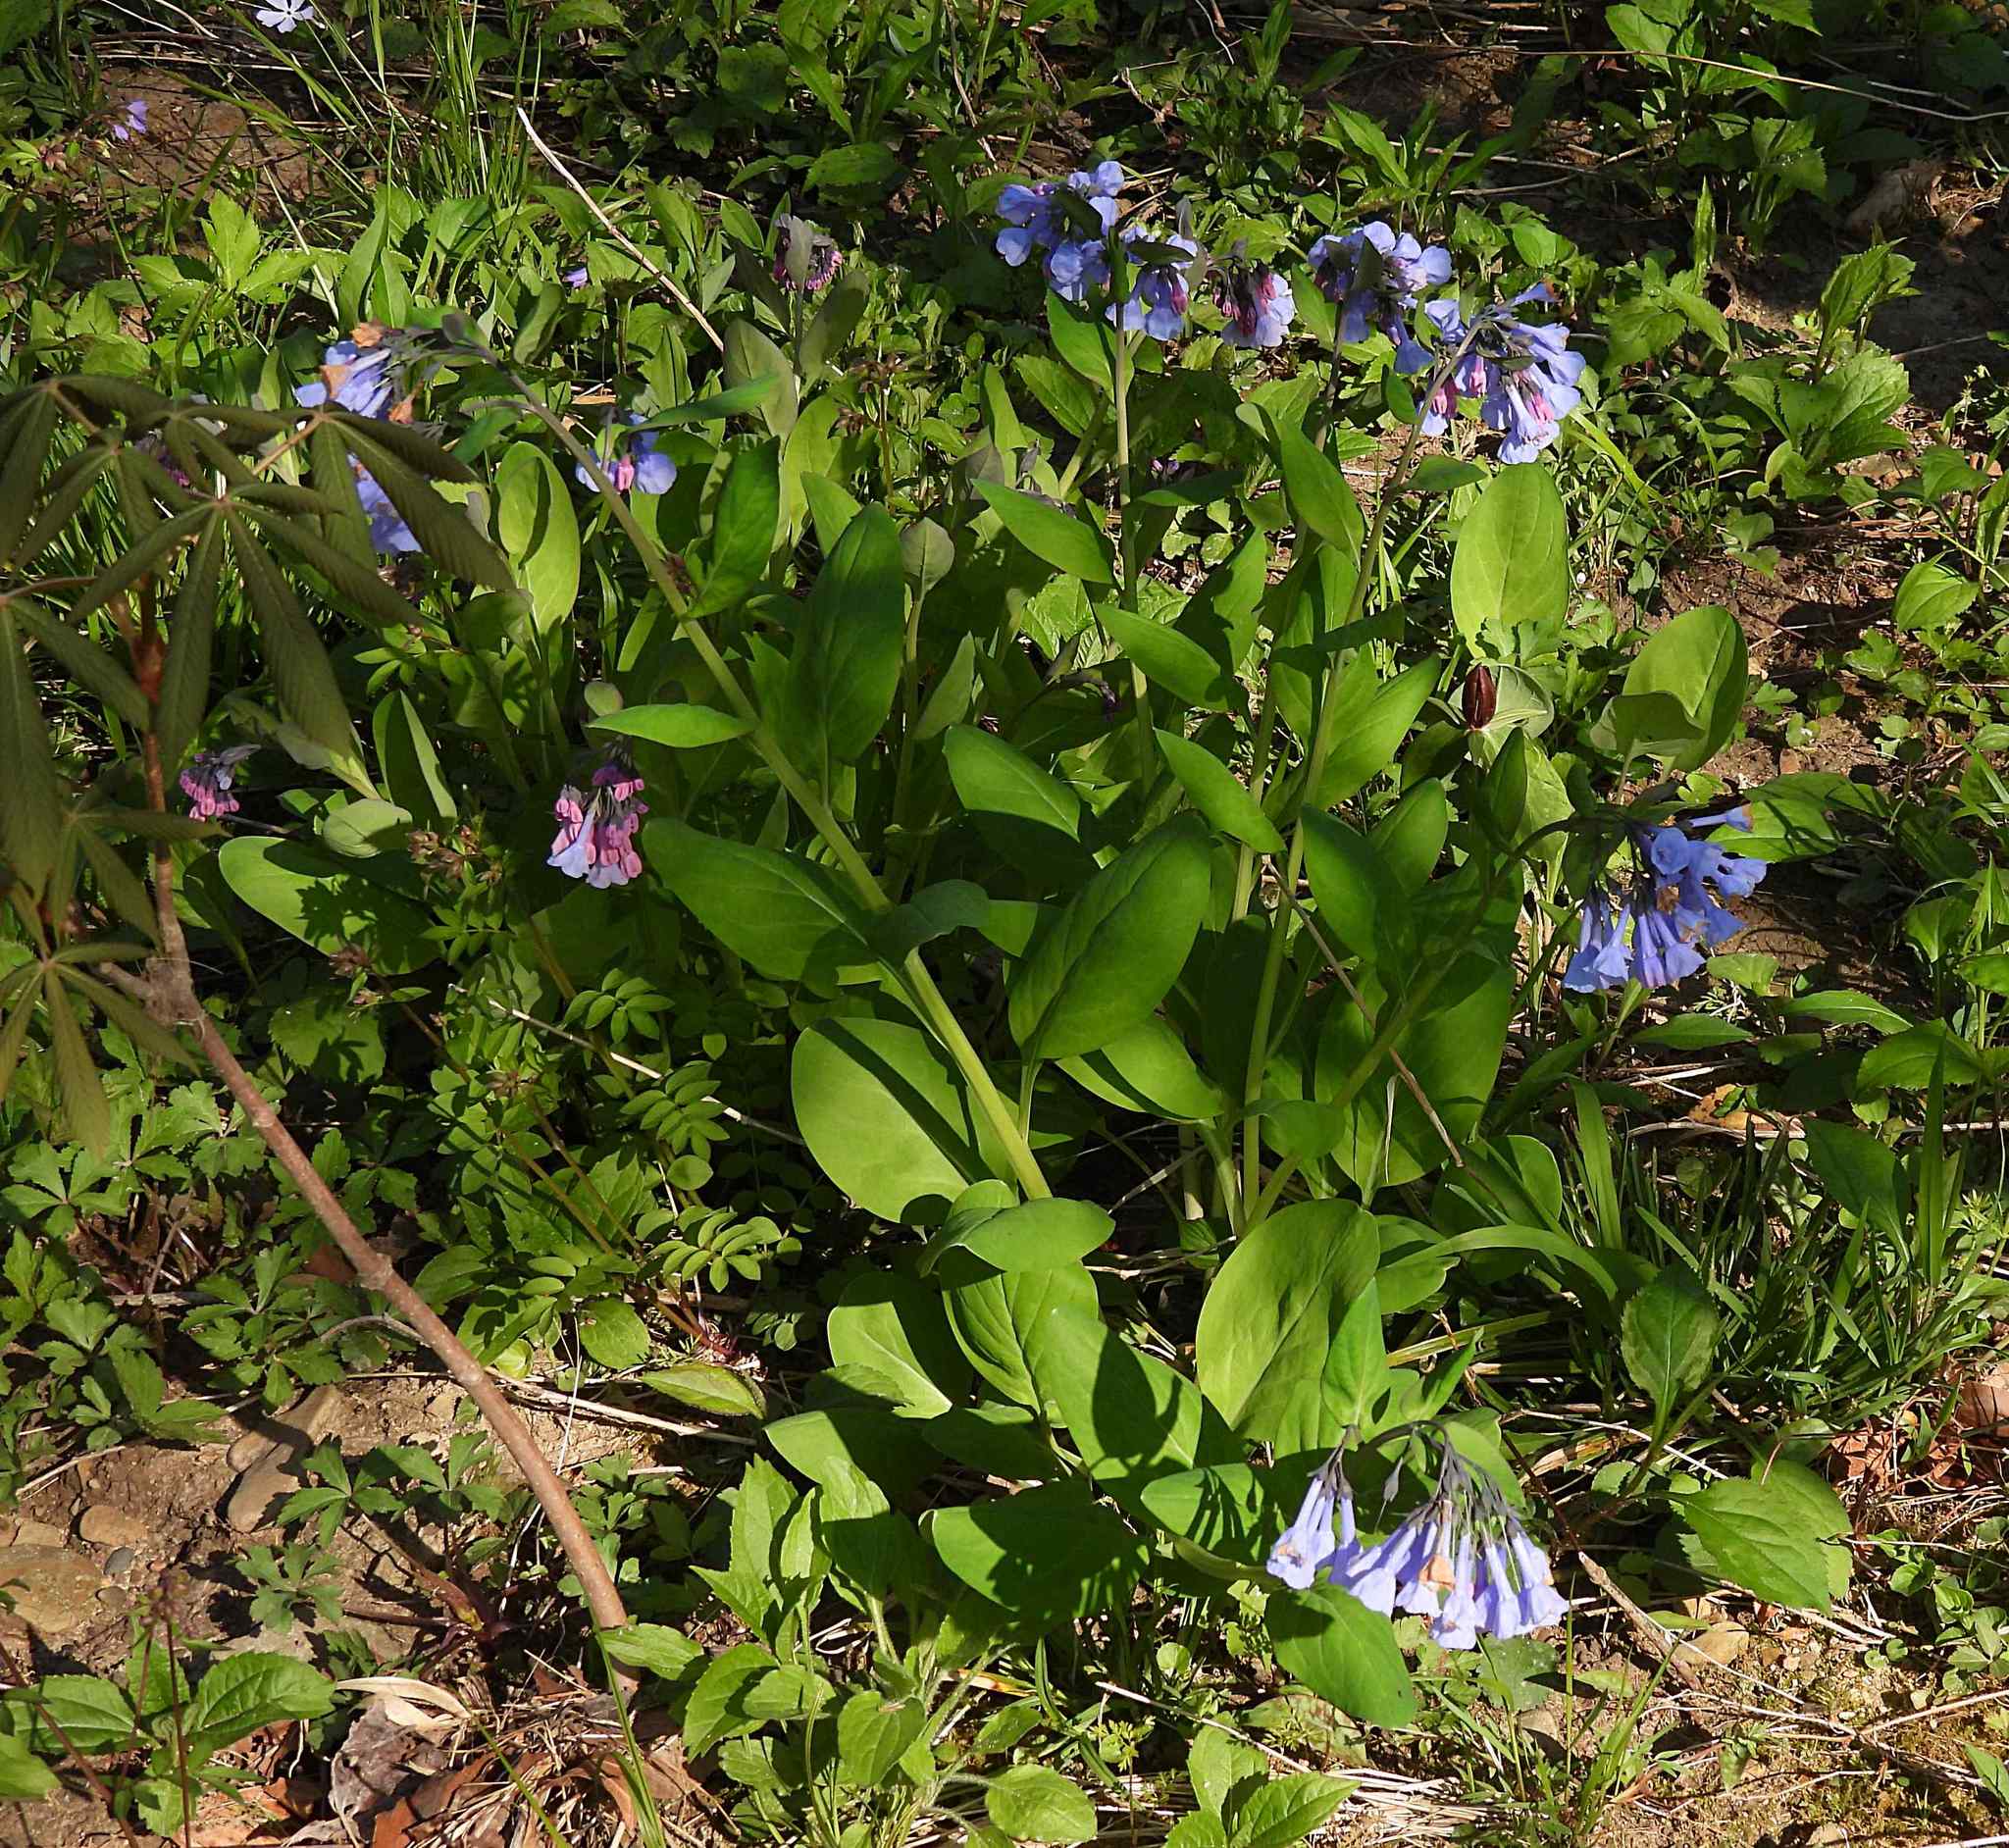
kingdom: Plantae
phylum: Tracheophyta
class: Magnoliopsida
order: Boraginales
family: Boraginaceae
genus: Mertensia
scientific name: Mertensia virginica
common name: Virginia bluebells
